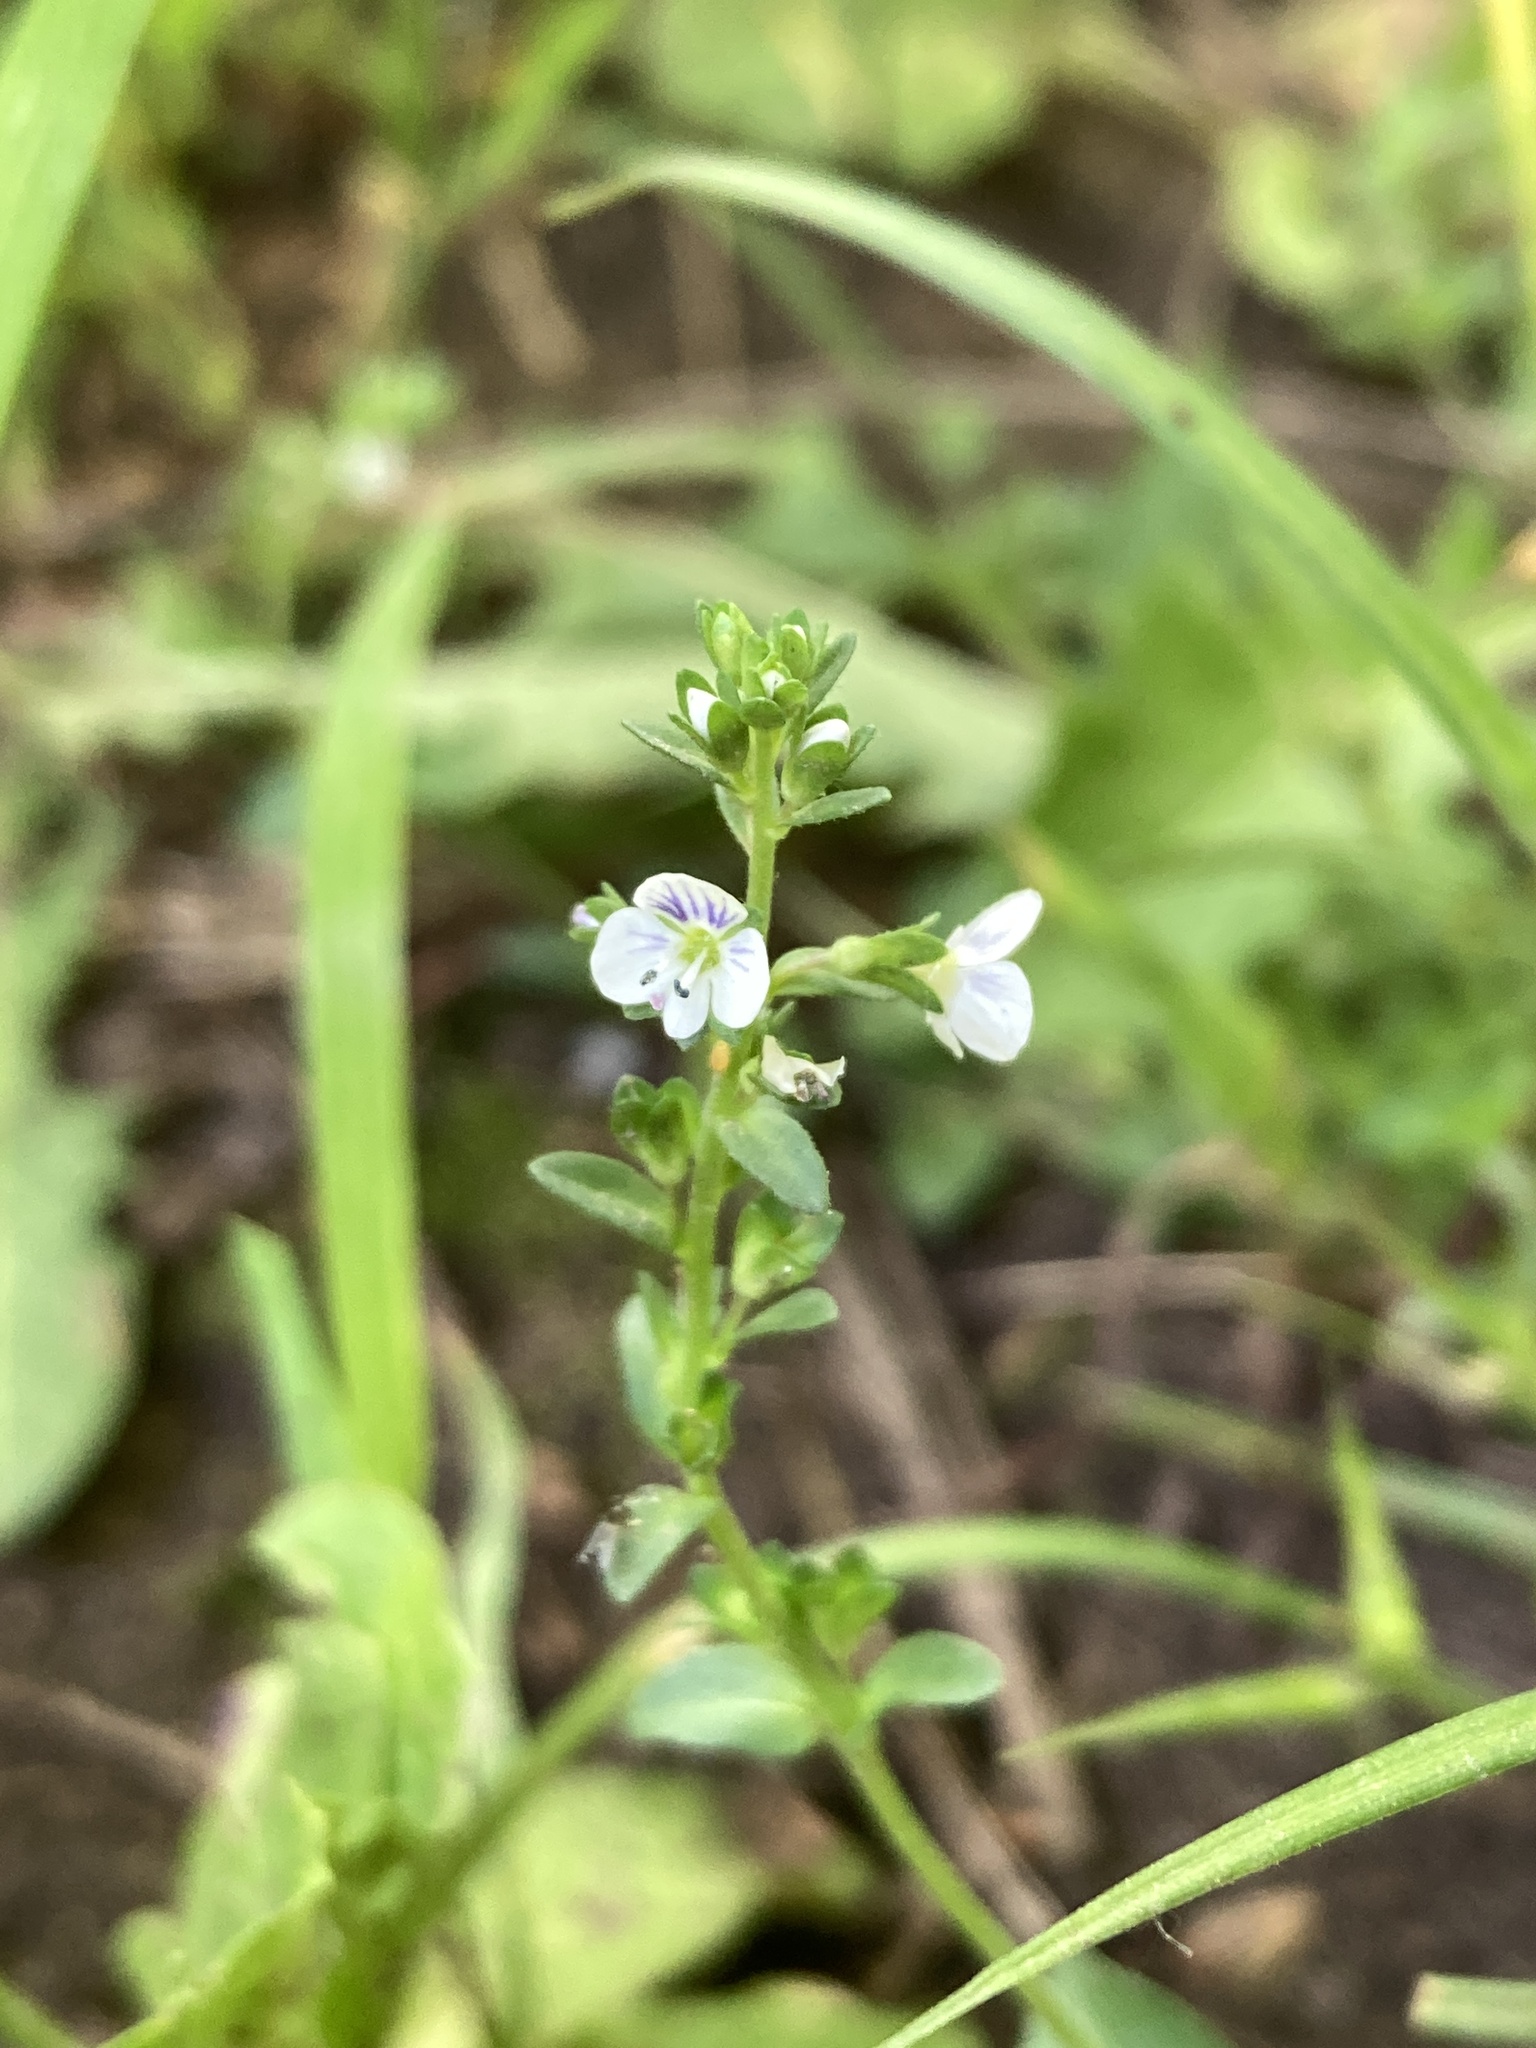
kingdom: Plantae
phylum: Tracheophyta
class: Magnoliopsida
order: Lamiales
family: Plantaginaceae
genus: Veronica
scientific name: Veronica serpyllifolia
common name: Thyme-leaved speedwell
